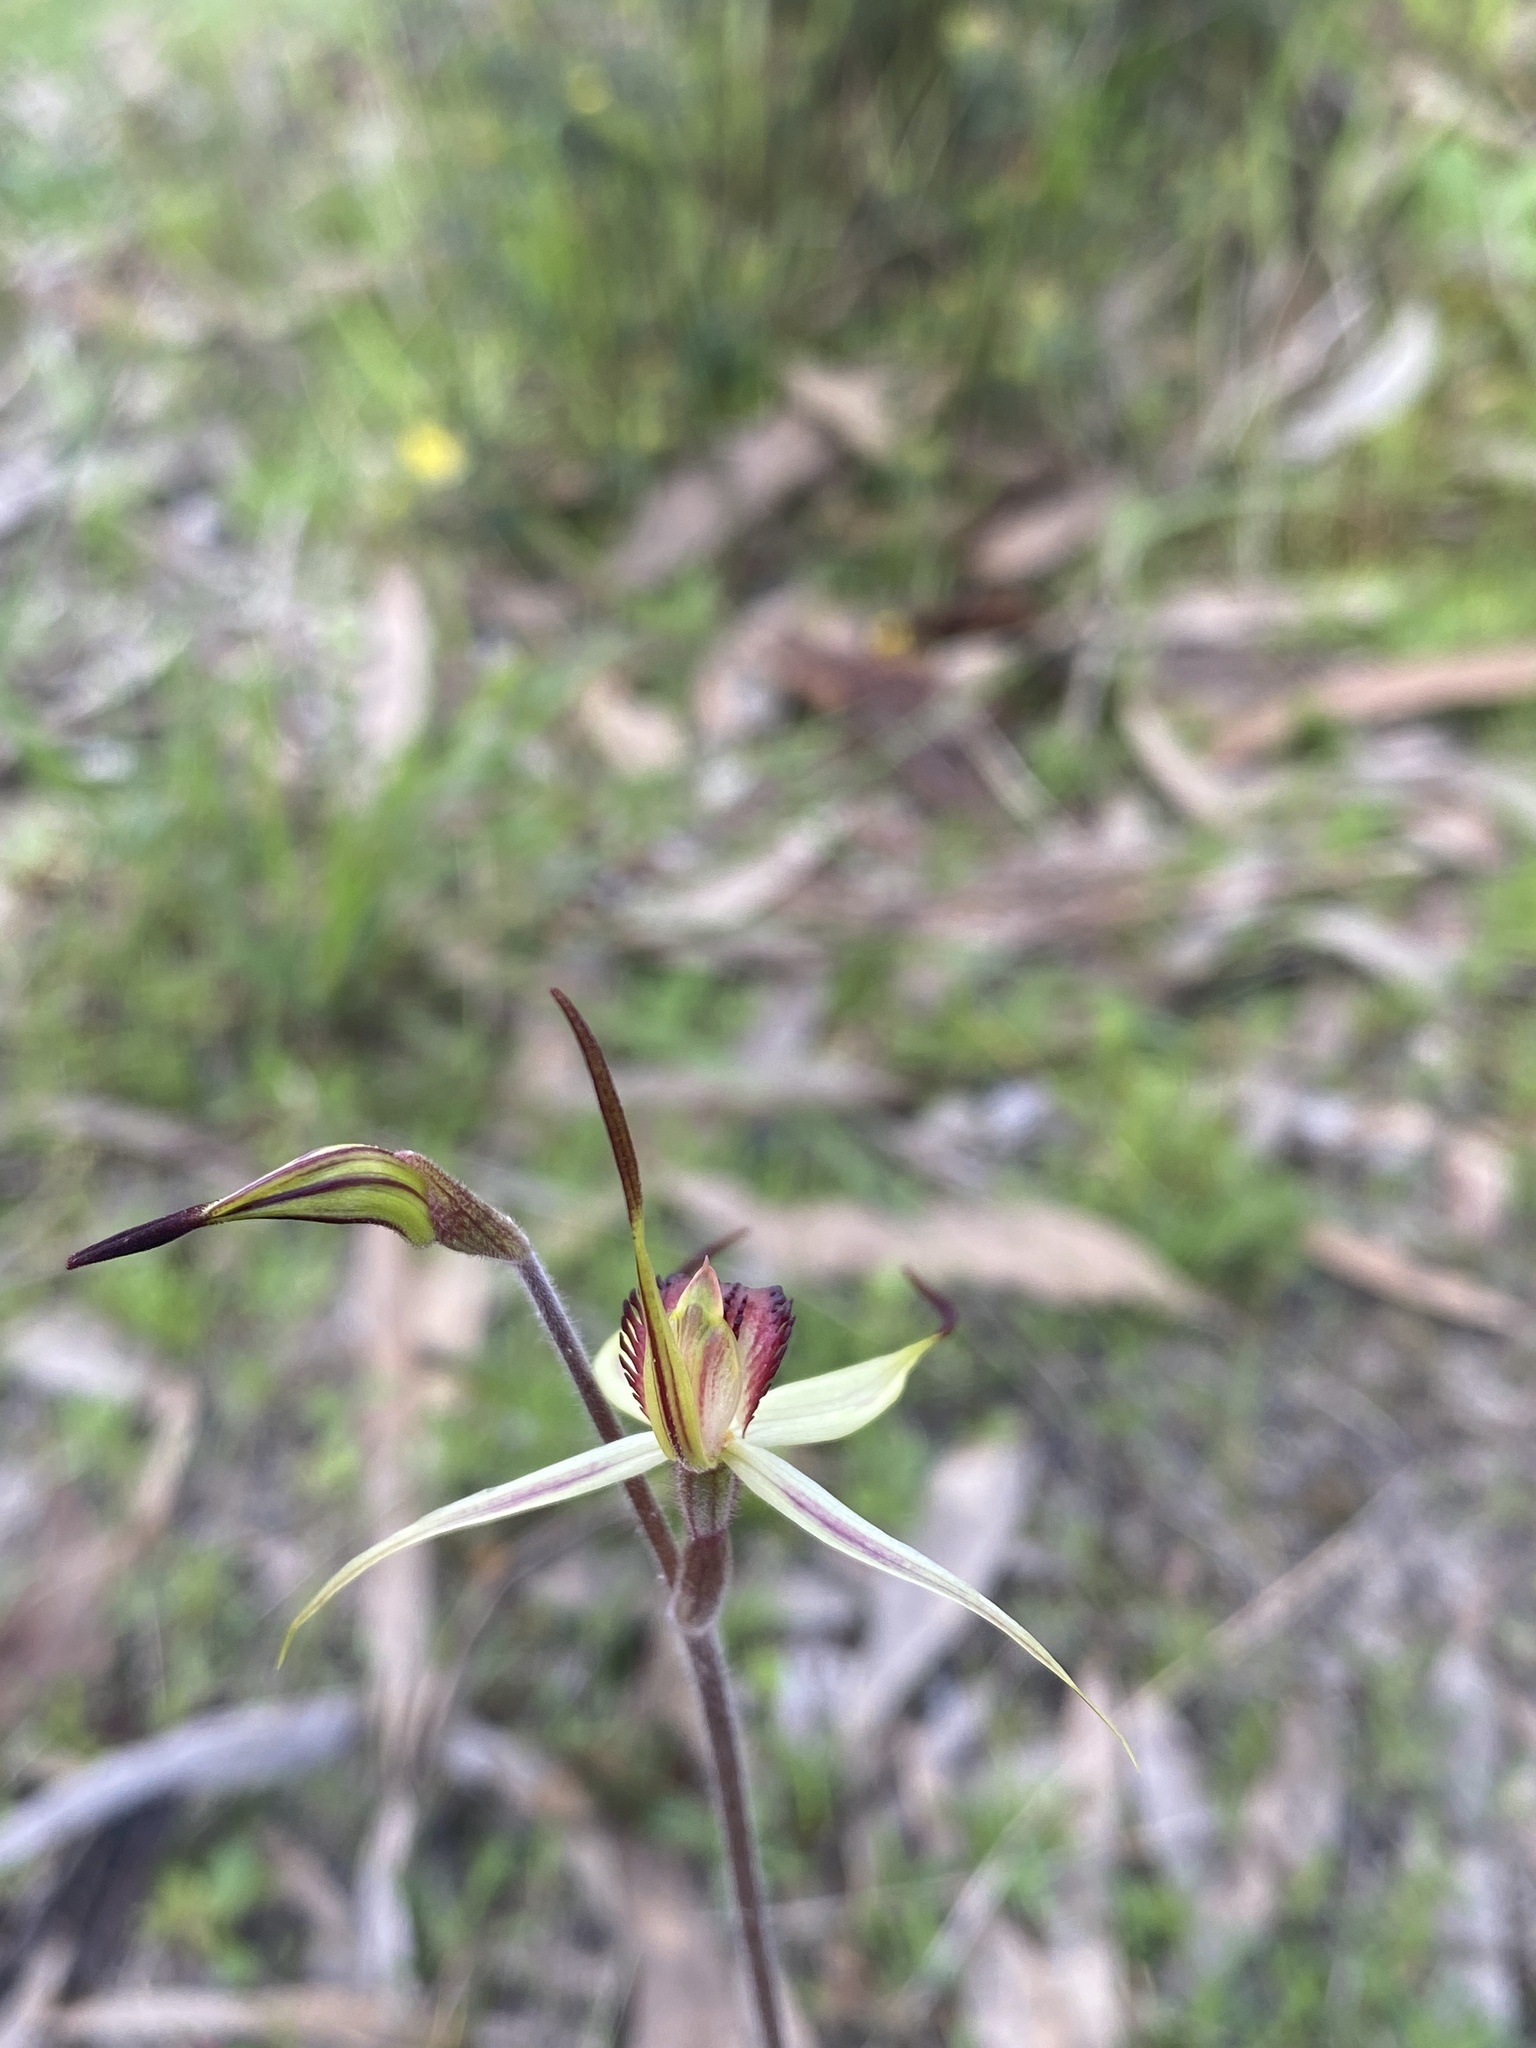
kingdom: Plantae
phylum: Tracheophyta
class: Liliopsida
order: Asparagales
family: Orchidaceae
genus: Caladenia
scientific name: Caladenia colorata
